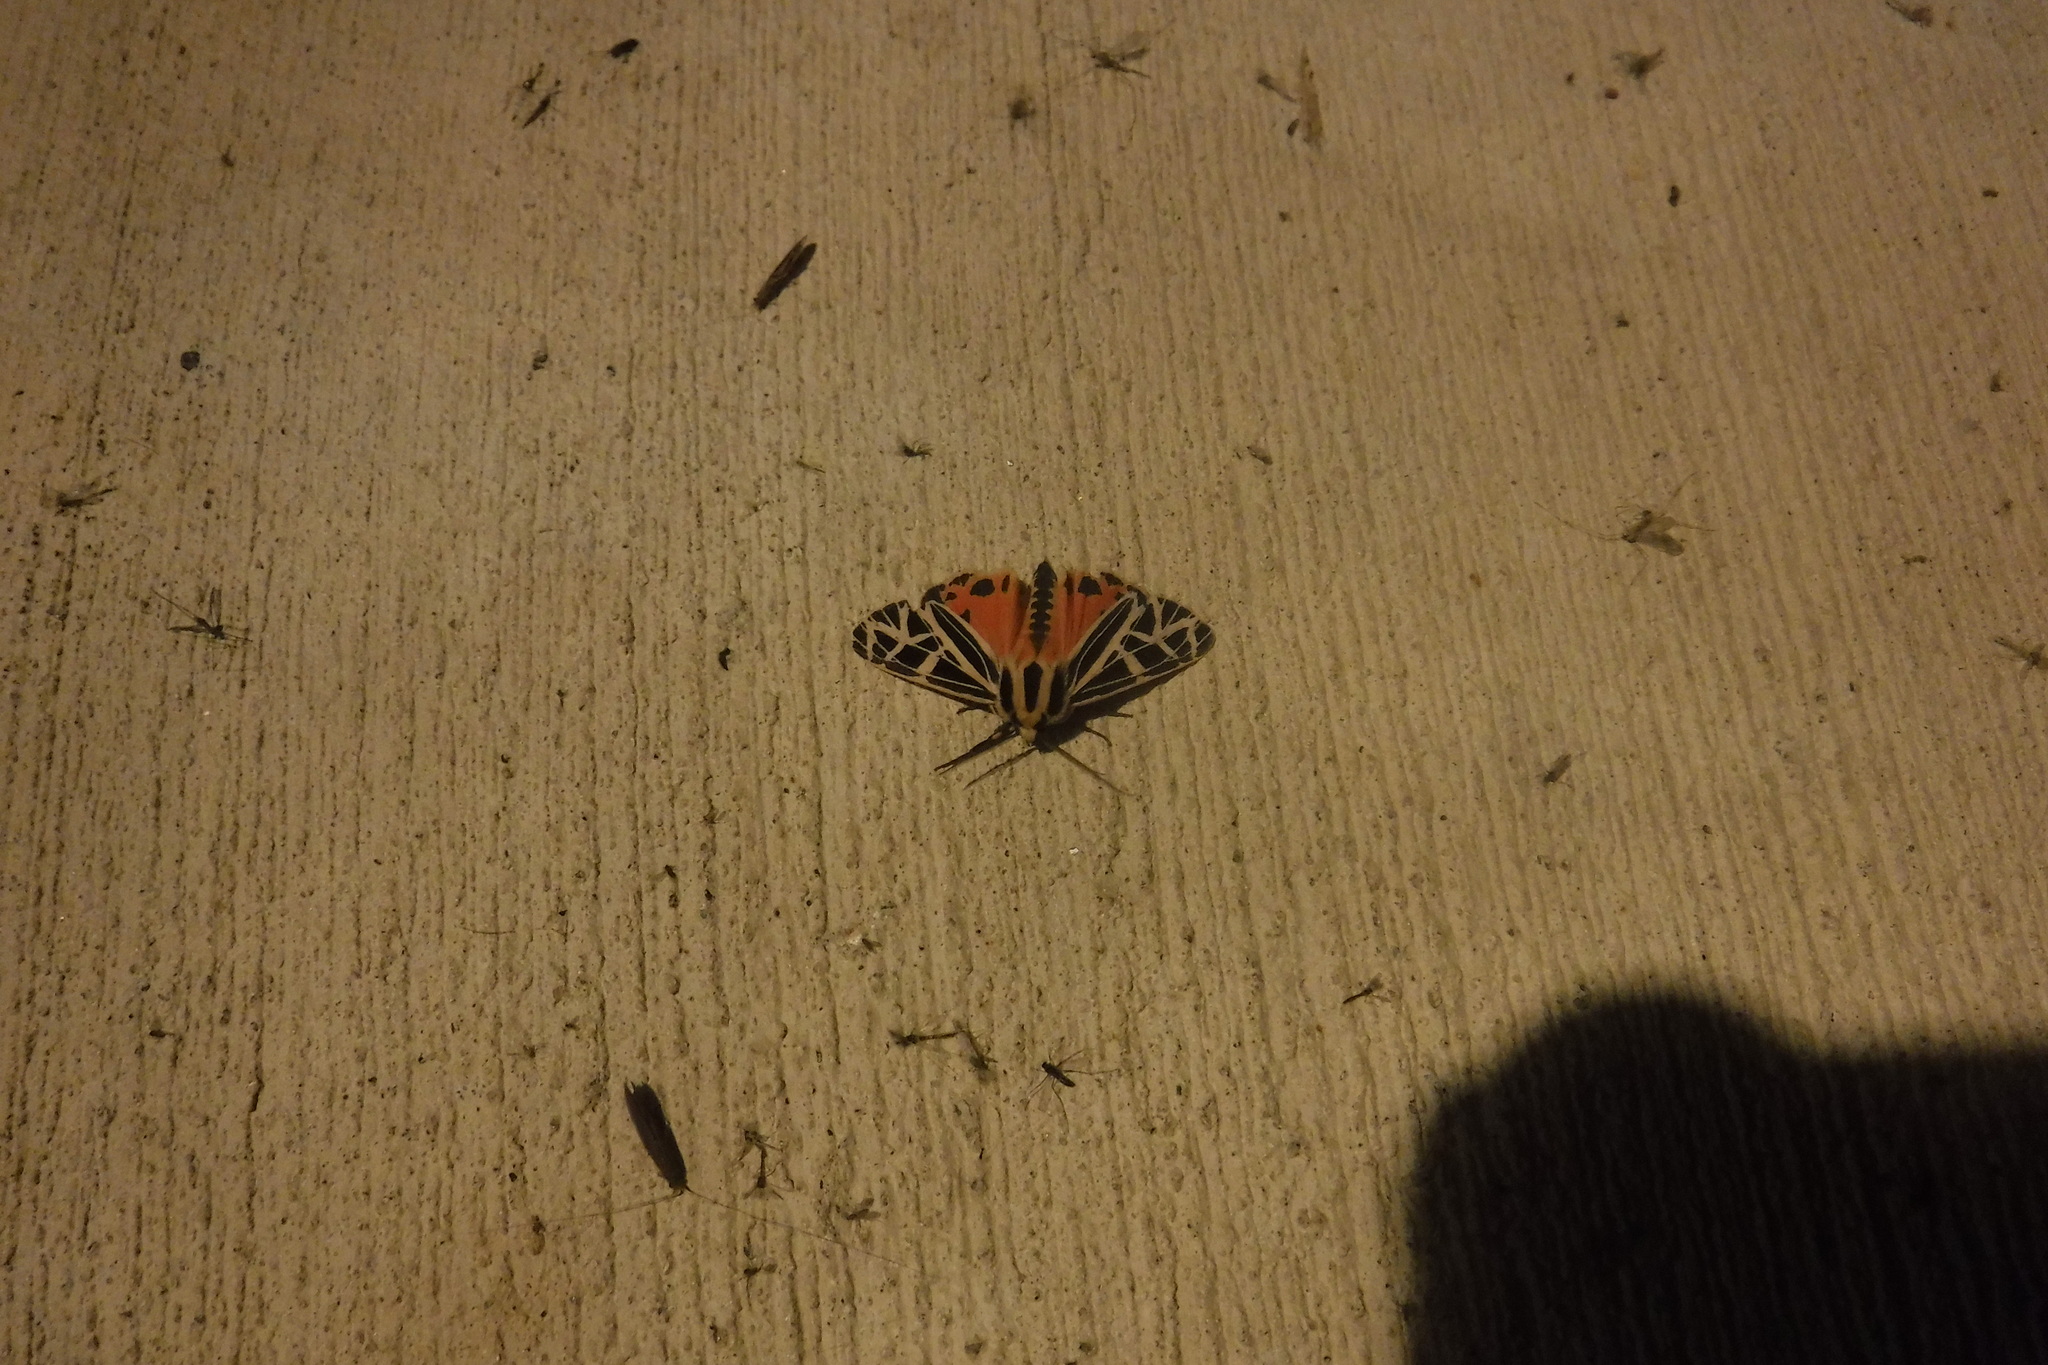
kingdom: Animalia
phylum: Arthropoda
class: Insecta
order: Lepidoptera
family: Erebidae
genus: Grammia
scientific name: Grammia parthenice
